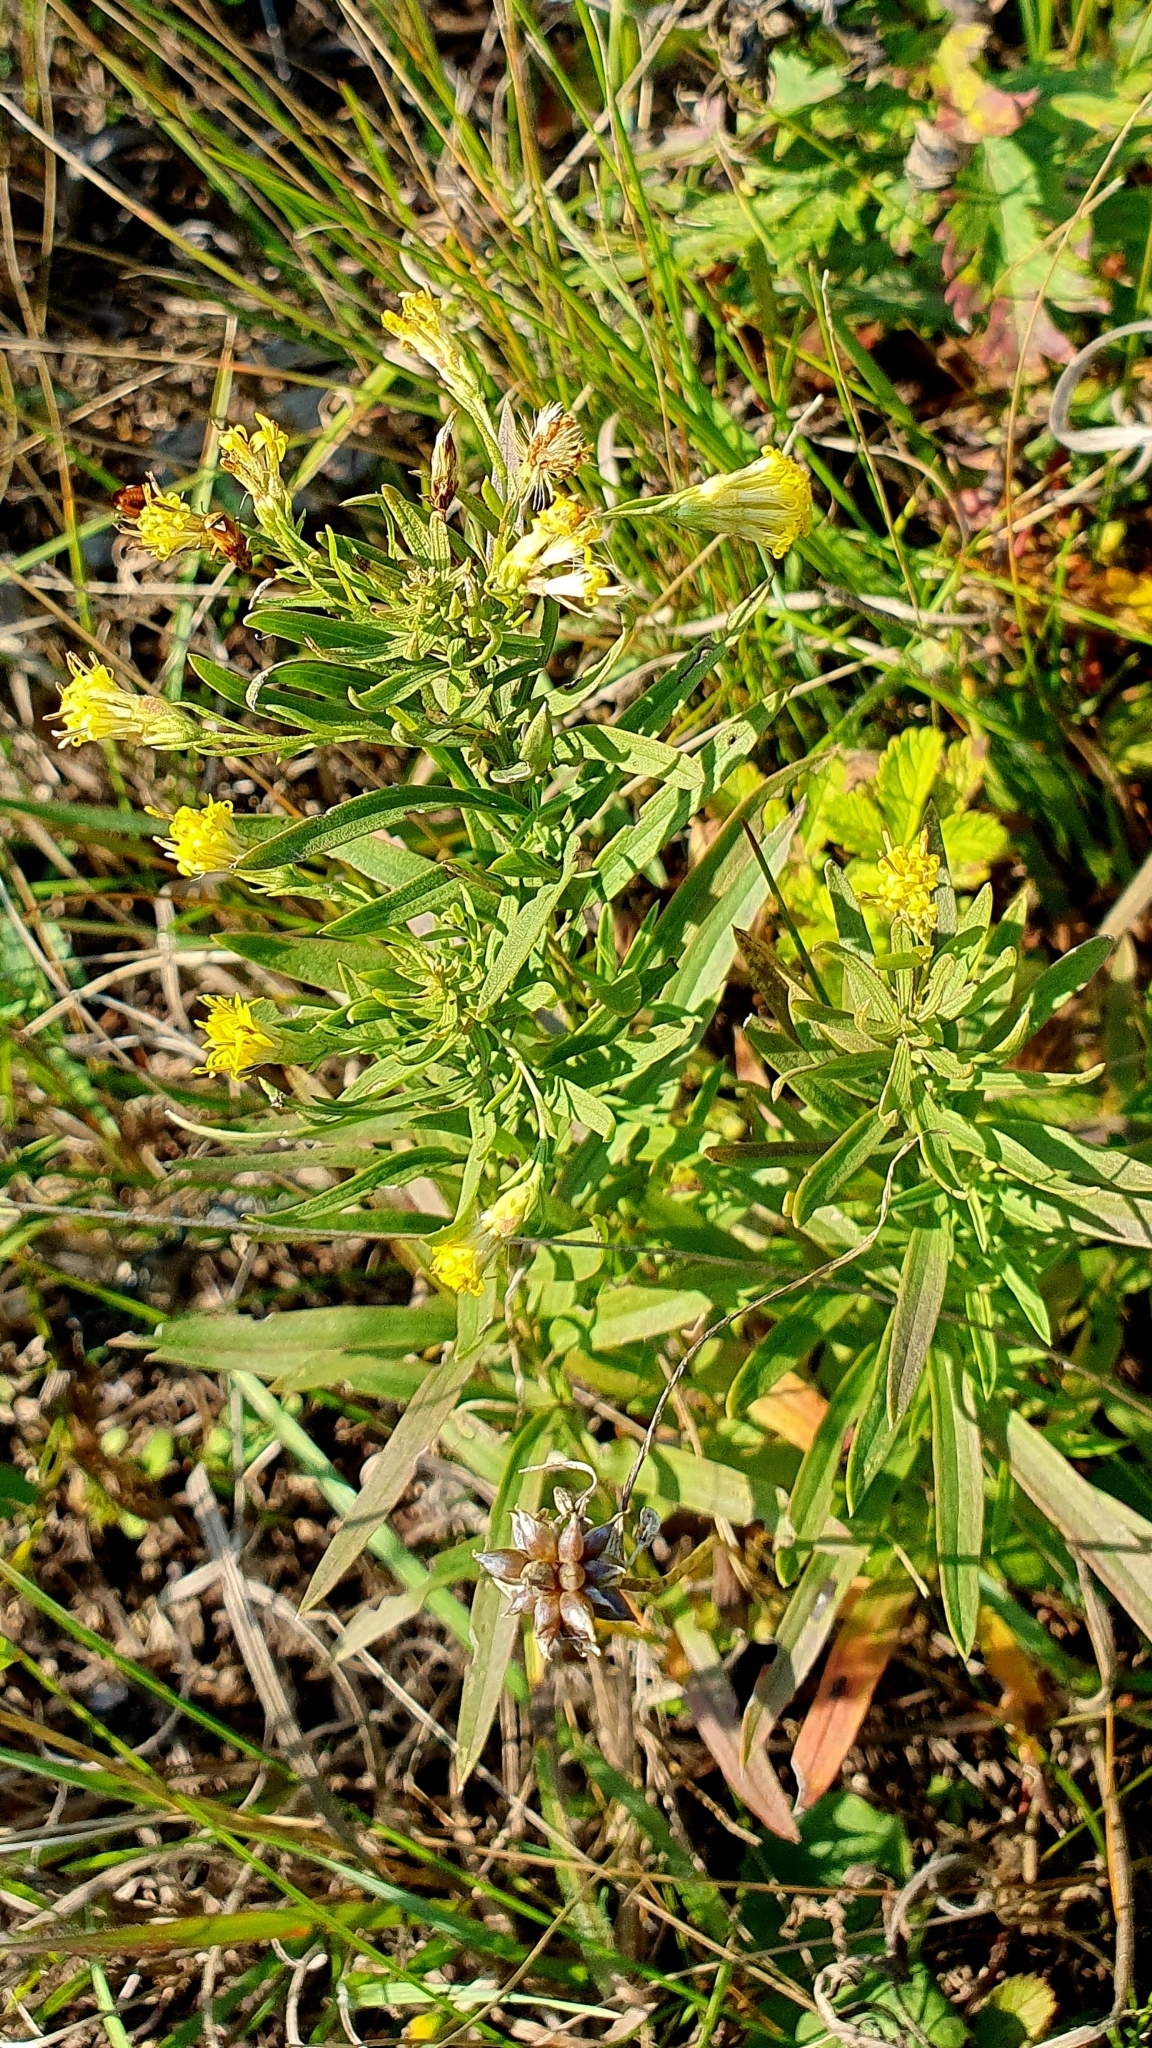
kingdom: Plantae
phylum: Tracheophyta
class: Magnoliopsida
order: Asterales
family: Asteraceae
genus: Galatella
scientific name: Galatella biflora
